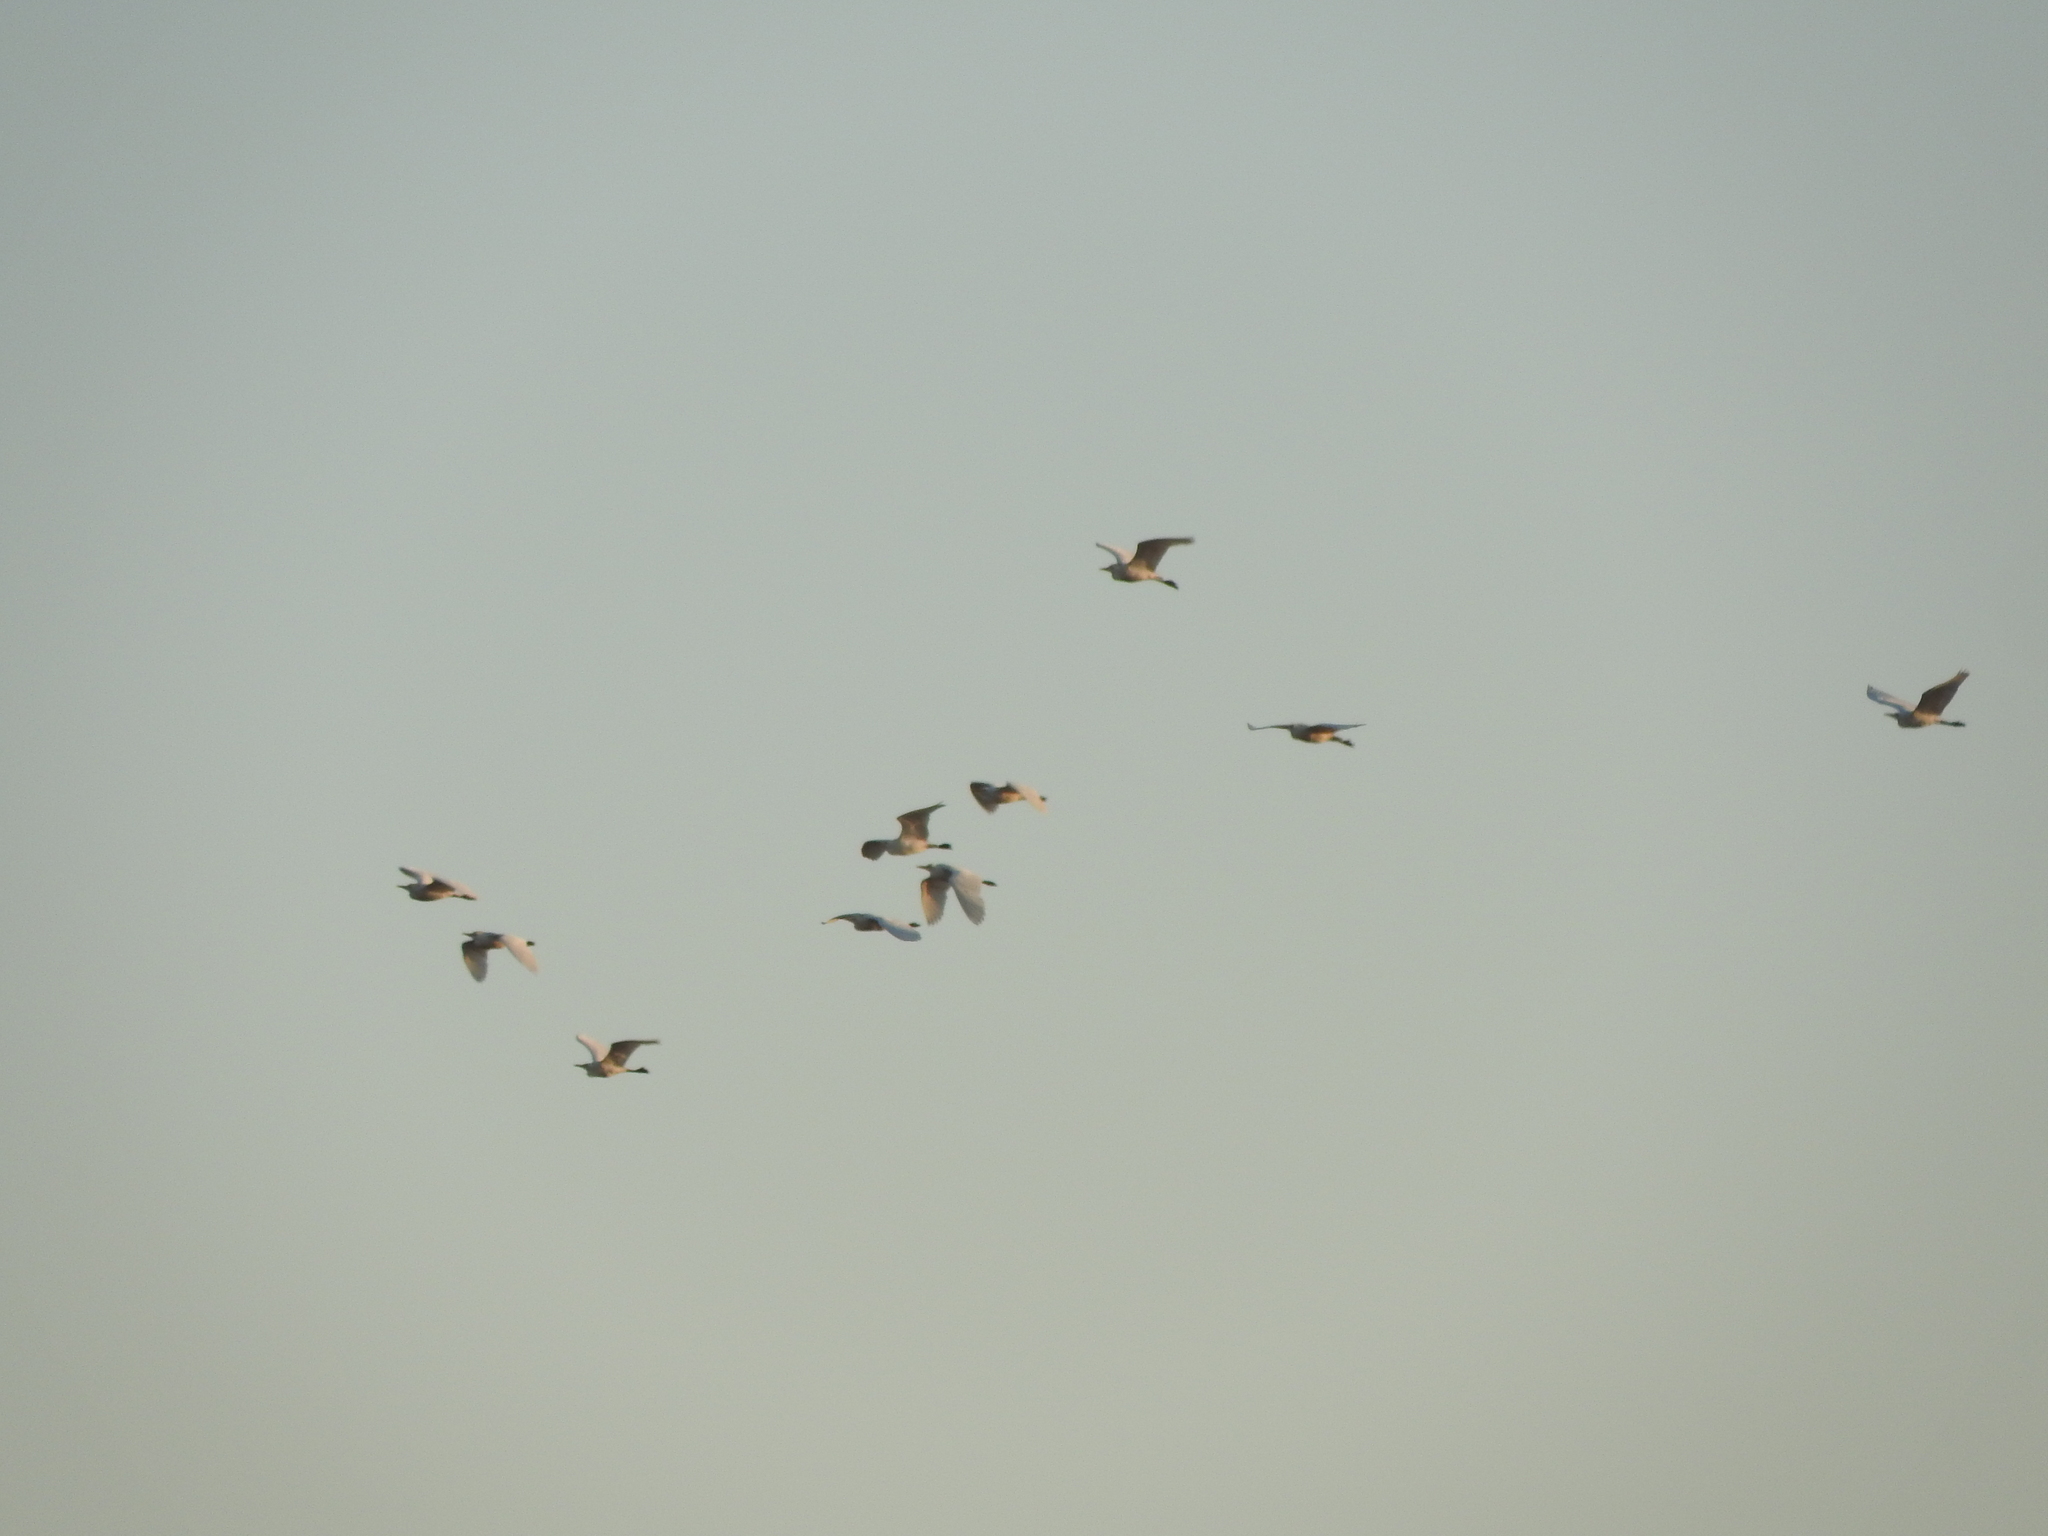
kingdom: Animalia
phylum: Chordata
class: Aves
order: Pelecaniformes
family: Ardeidae
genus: Bubulcus
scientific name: Bubulcus ibis
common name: Cattle egret
